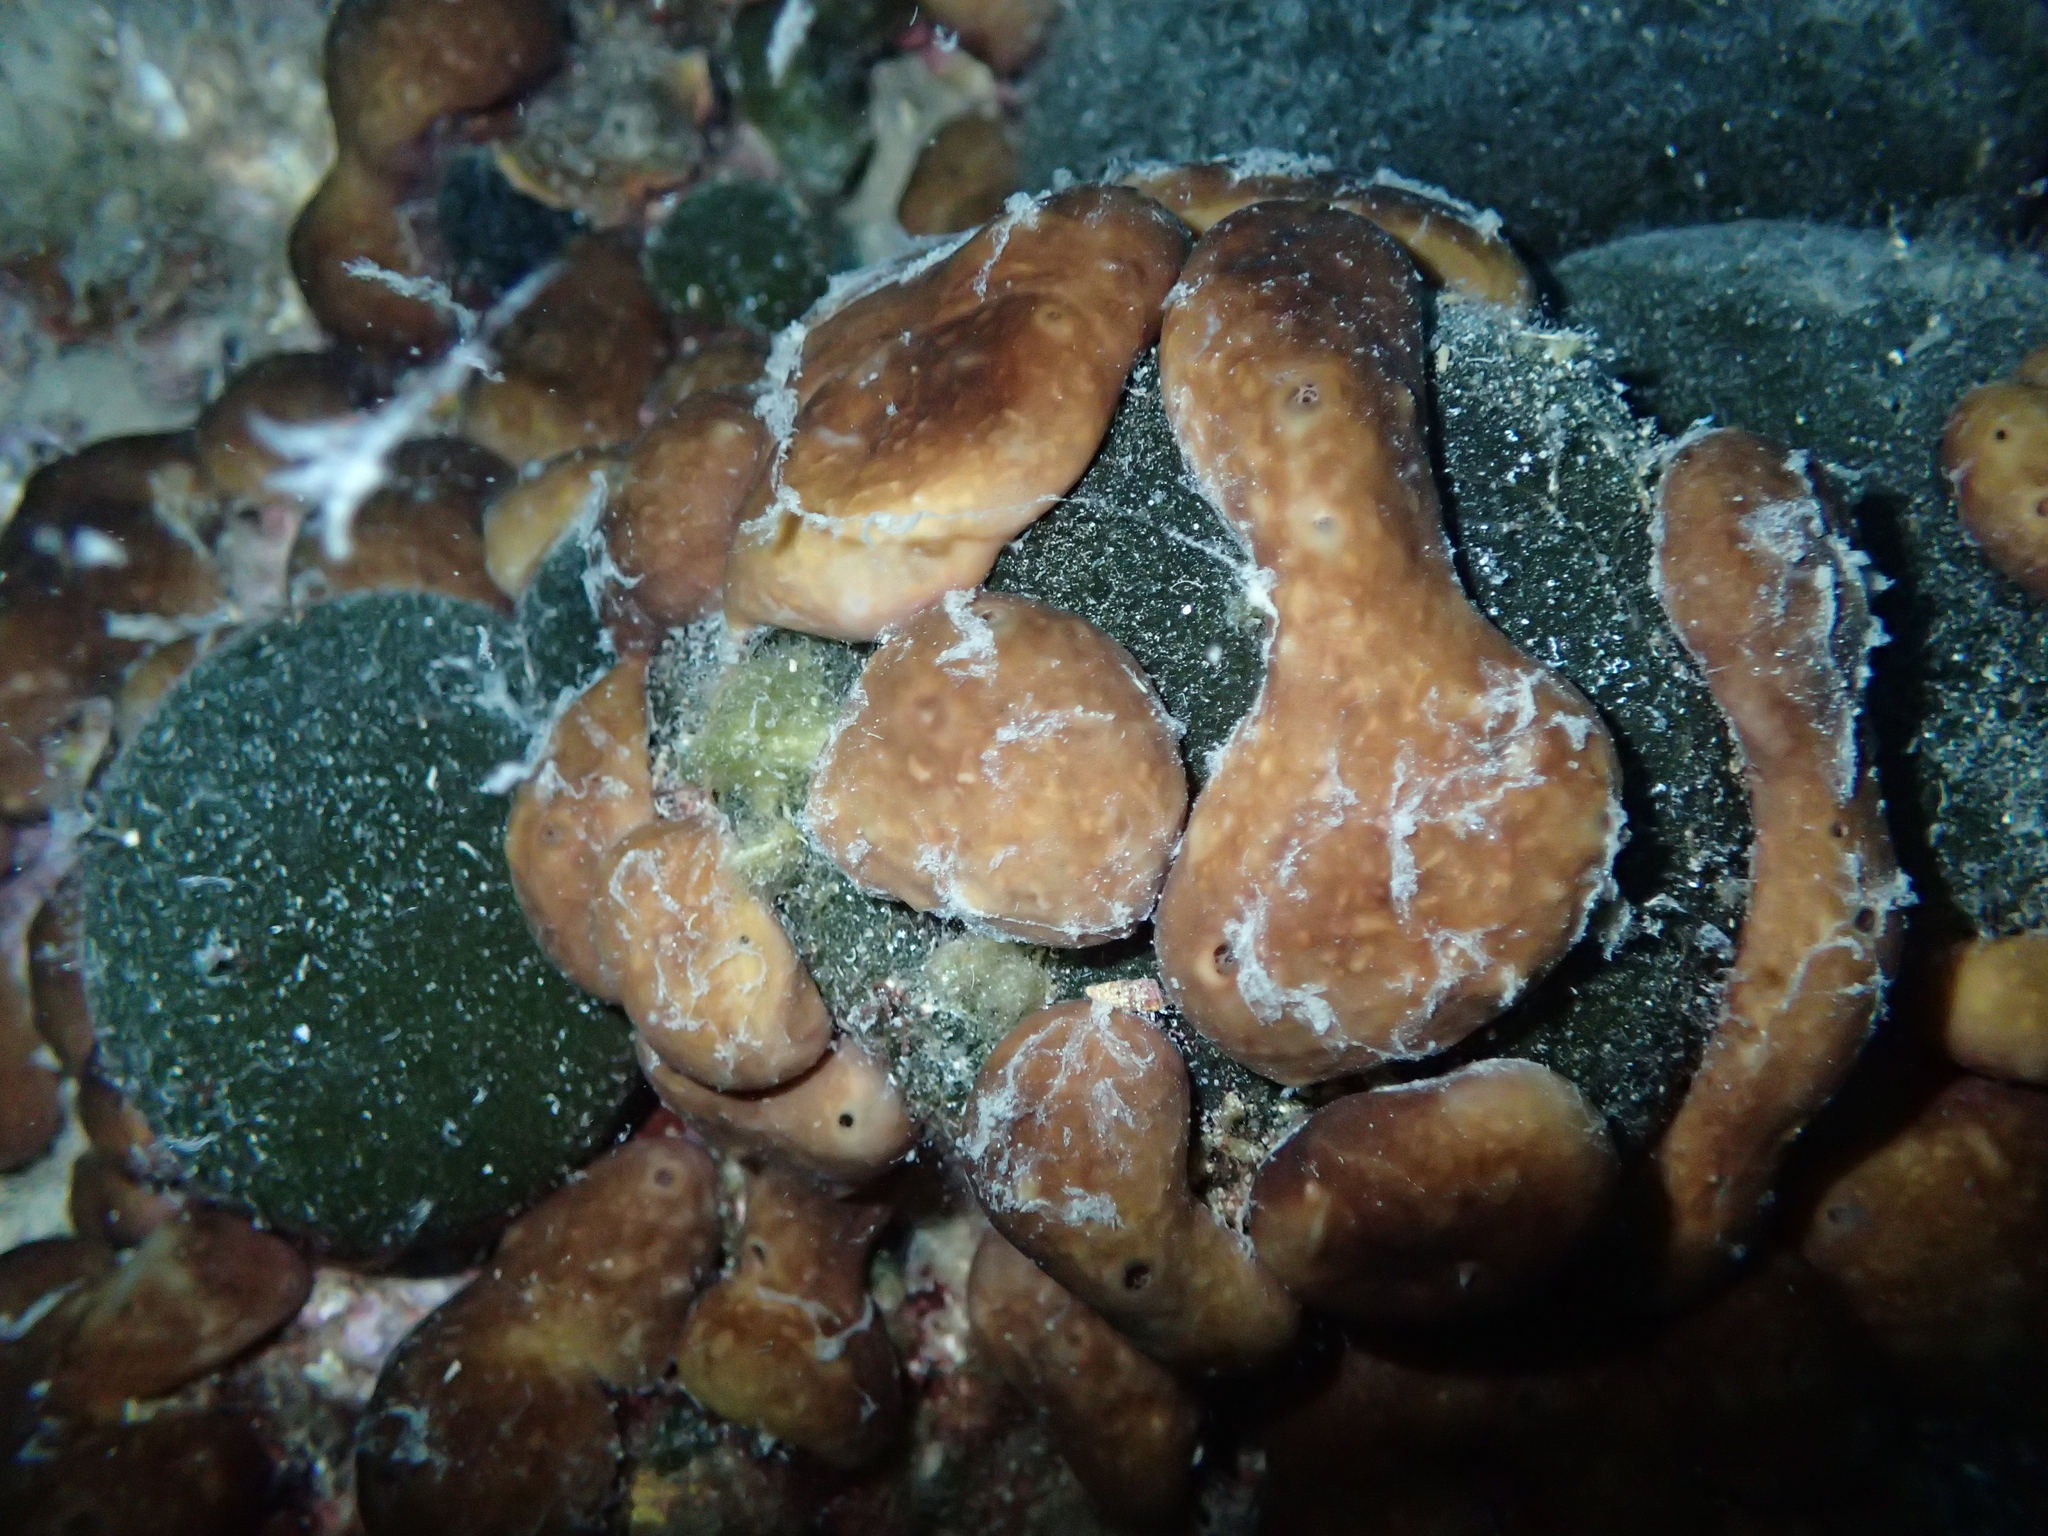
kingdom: Animalia
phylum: Porifera
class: Demospongiae
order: Chondrillida
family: Chondrillidae
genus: Chondrilla
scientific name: Chondrilla nucula
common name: Chicken liver sponge
